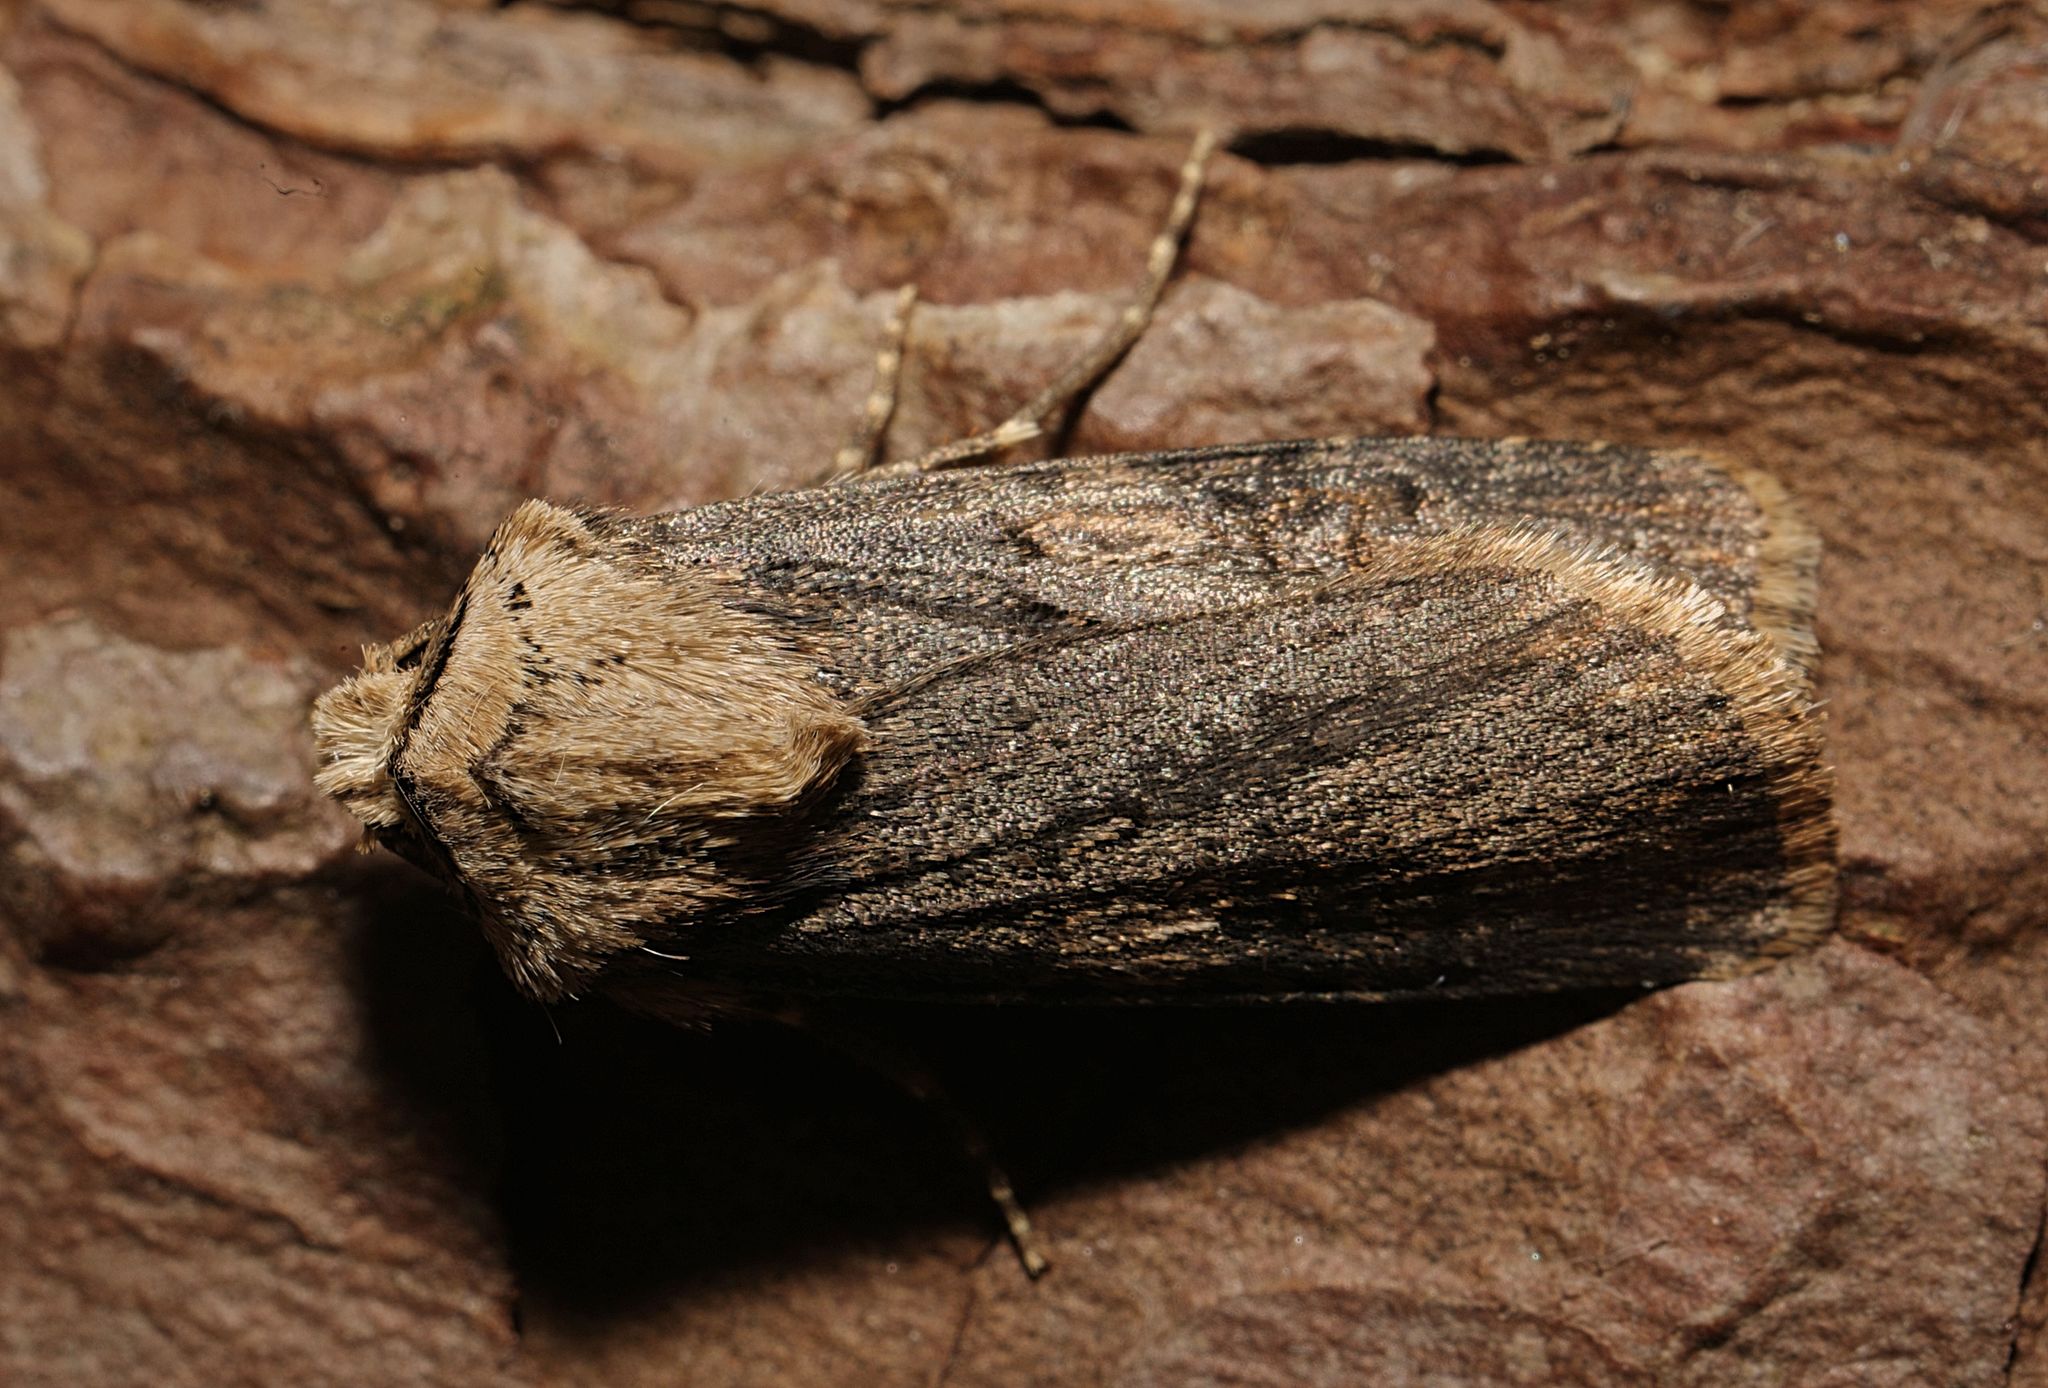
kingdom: Animalia
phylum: Arthropoda
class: Insecta
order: Lepidoptera
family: Noctuidae
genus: Agrotis
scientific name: Agrotis puta
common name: Shuttle-shaped dart
